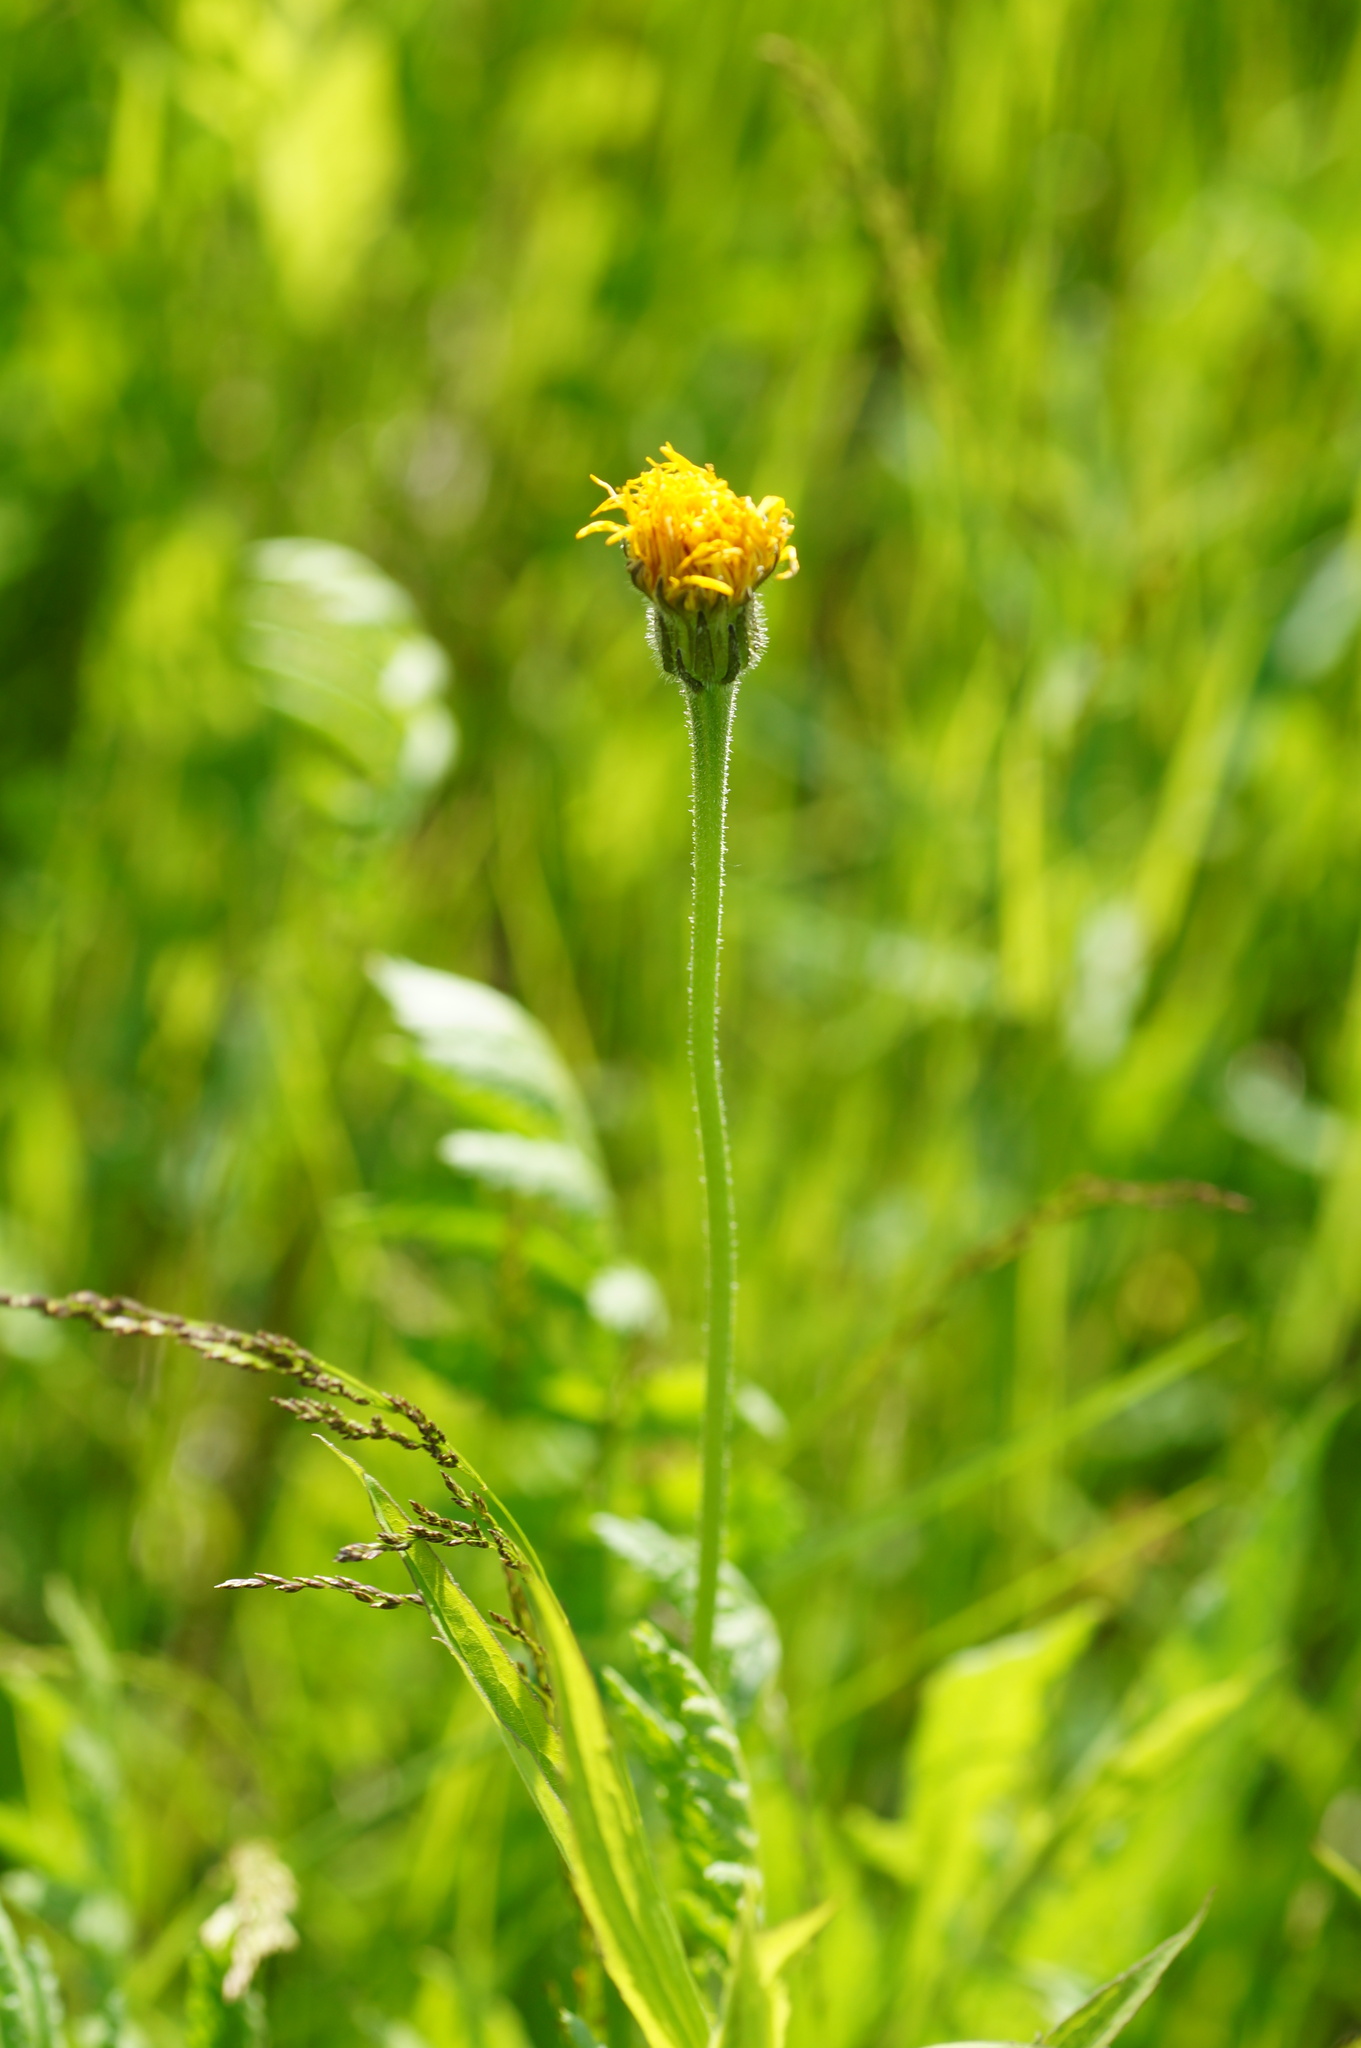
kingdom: Plantae
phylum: Tracheophyta
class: Magnoliopsida
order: Asterales
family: Asteraceae
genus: Leontodon
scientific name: Leontodon hispidus
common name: Rough hawkbit
